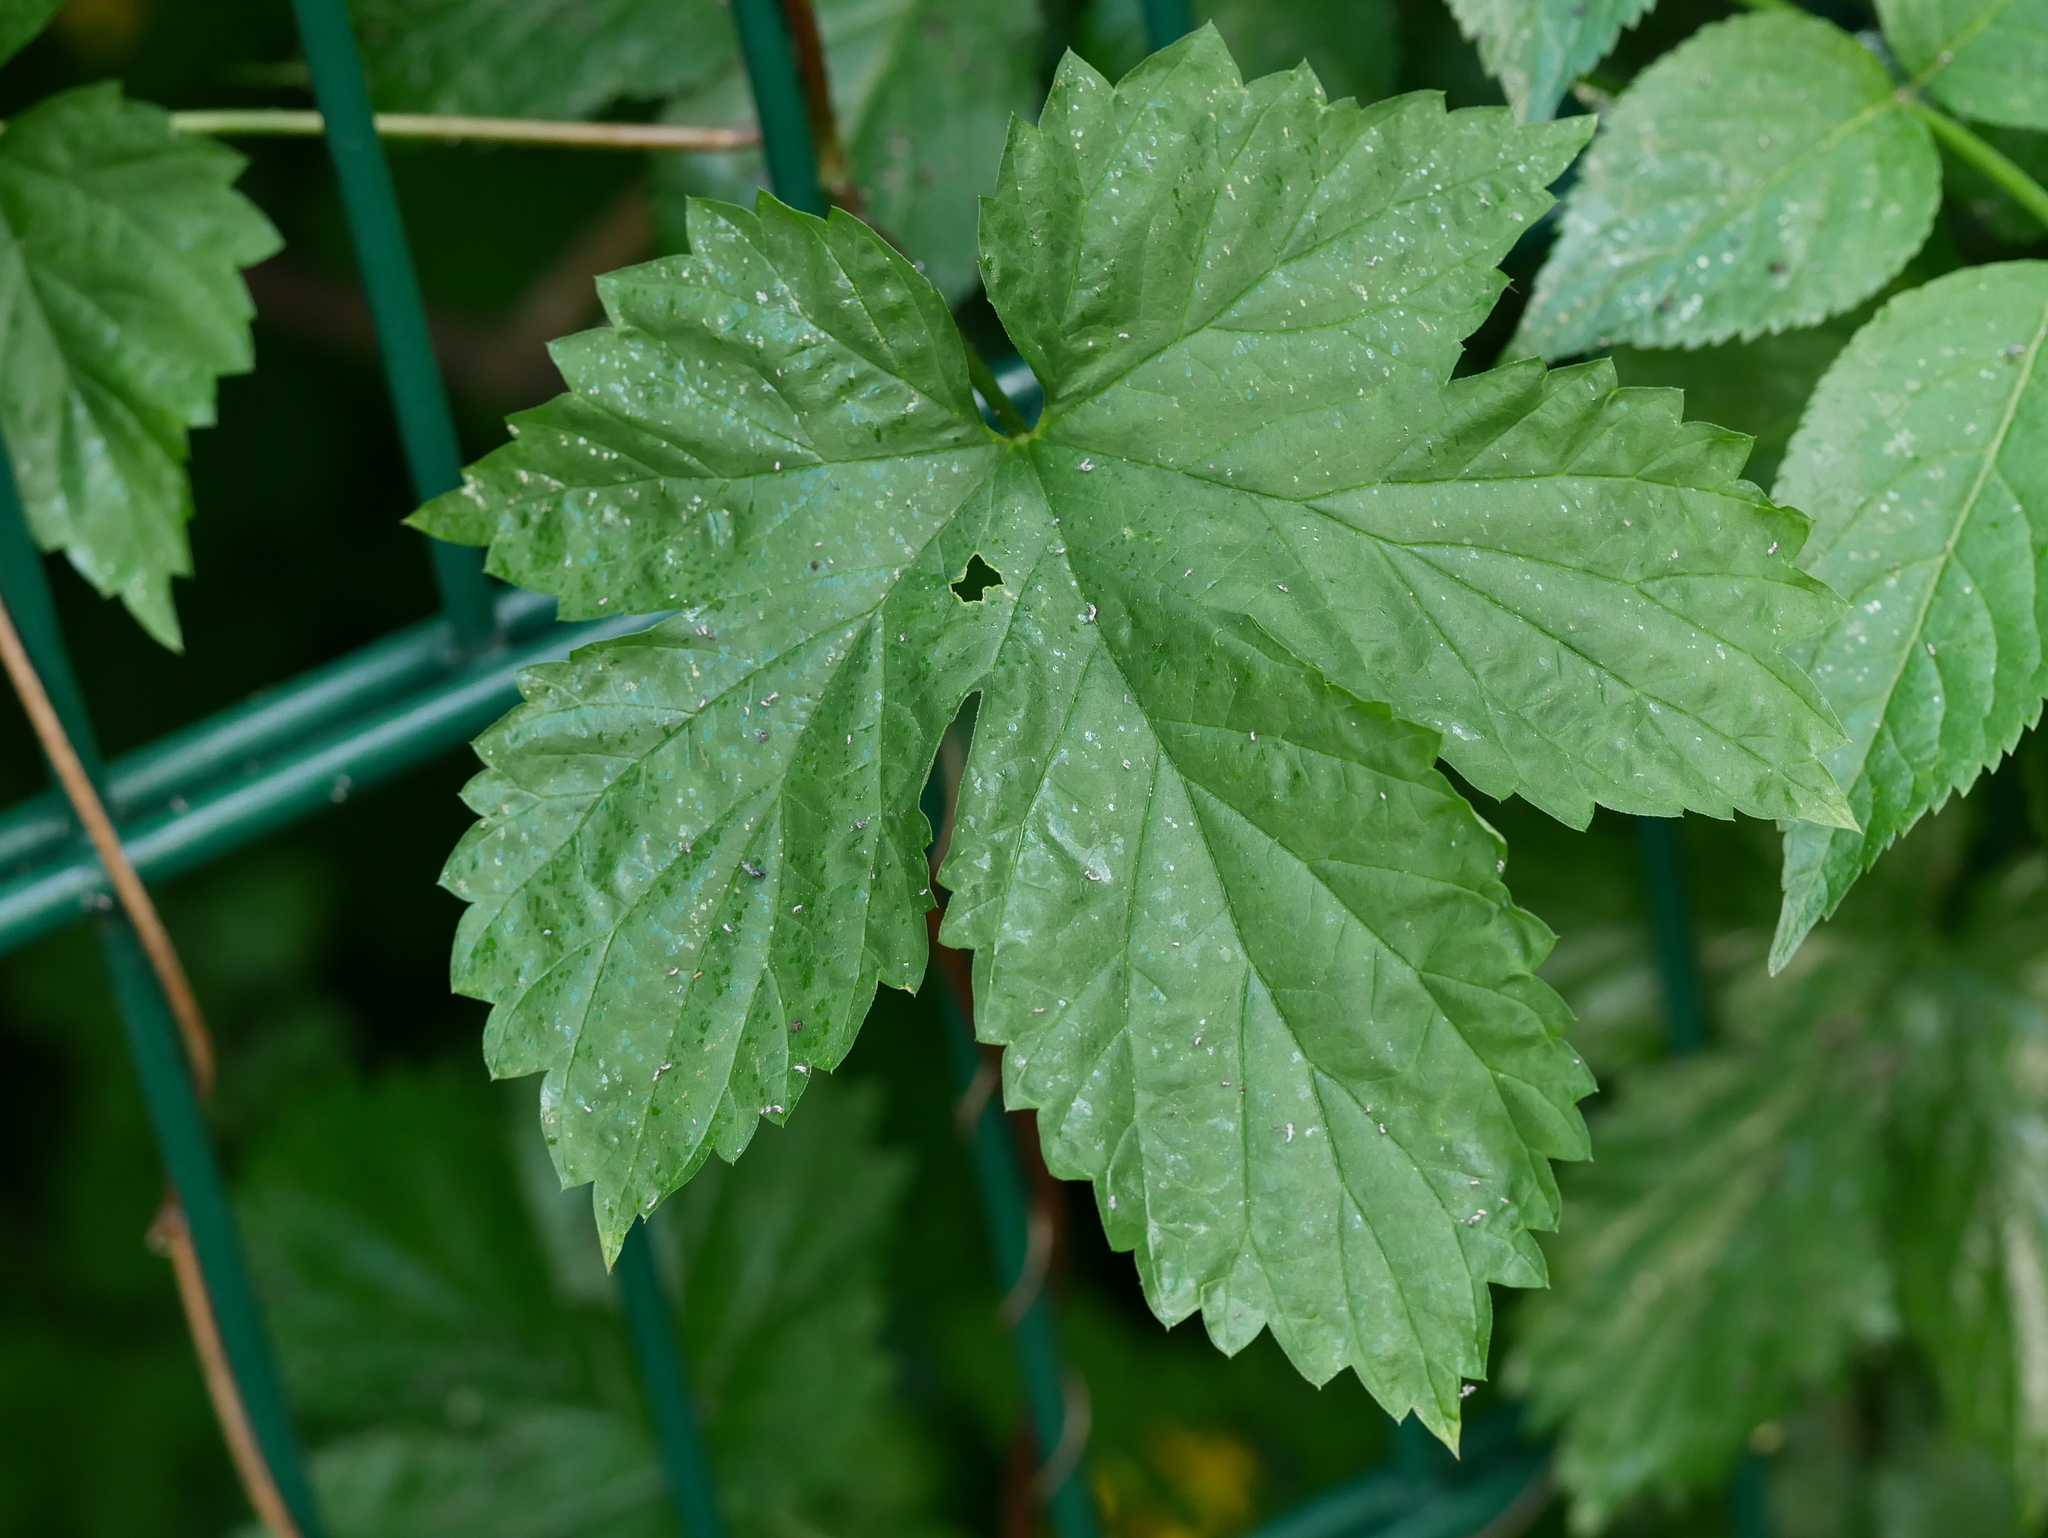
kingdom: Plantae
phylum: Tracheophyta
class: Magnoliopsida
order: Rosales
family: Cannabaceae
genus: Humulus
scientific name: Humulus lupulus
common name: Hop
